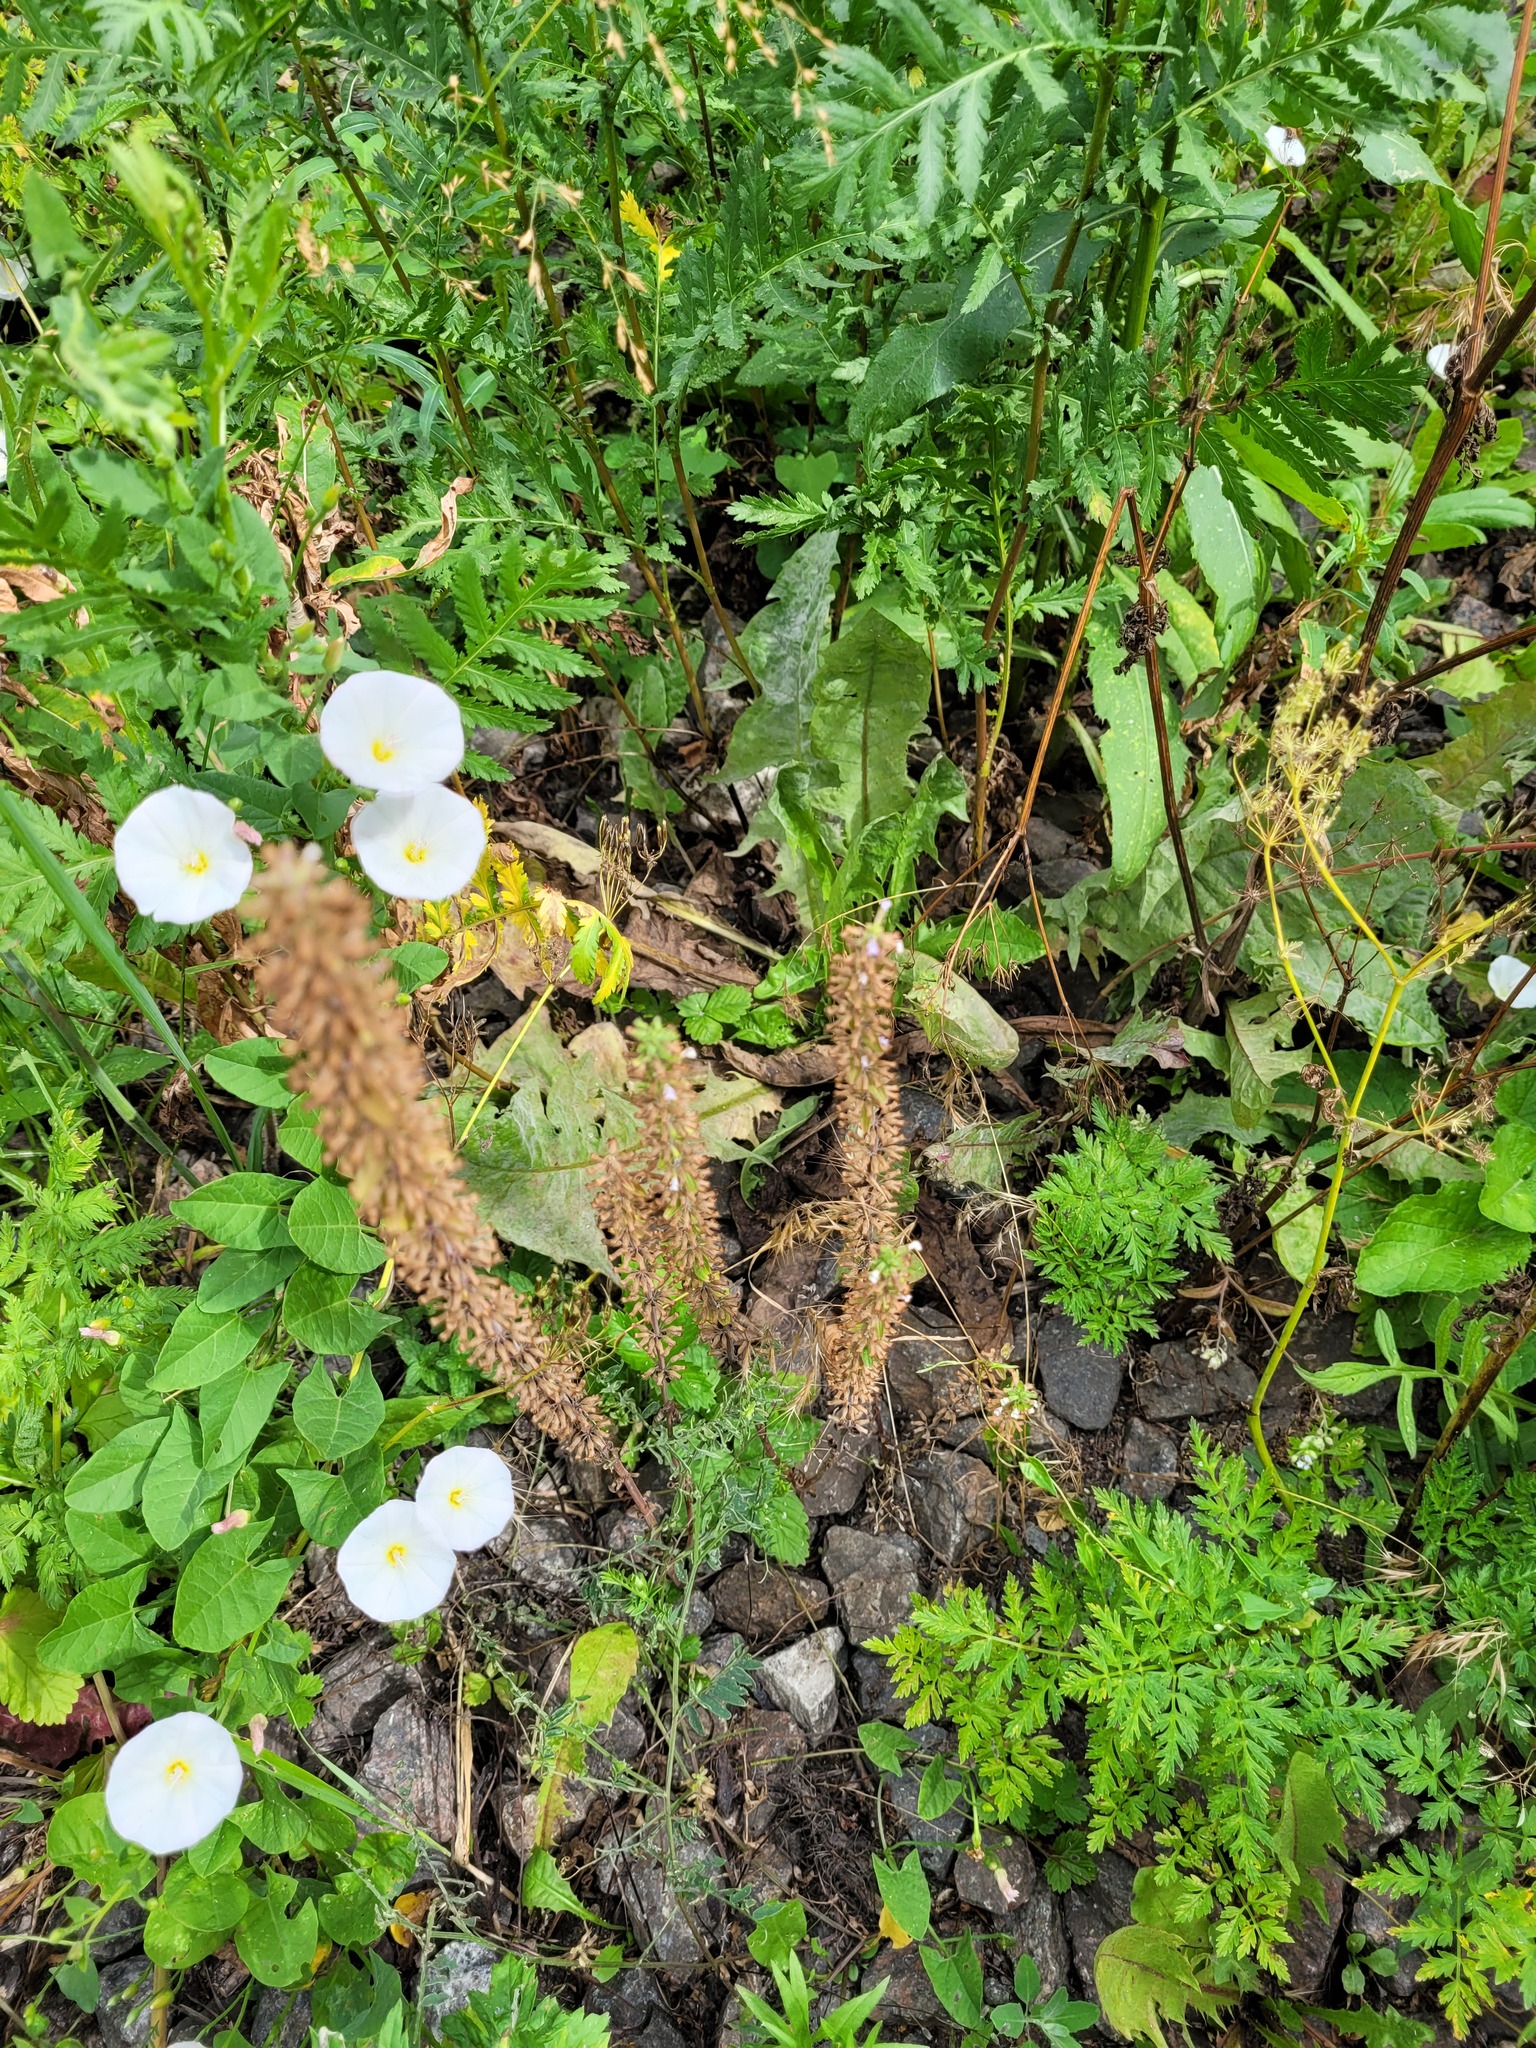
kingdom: Plantae
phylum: Tracheophyta
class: Magnoliopsida
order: Lamiales
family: Lamiaceae
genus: Dracocephalum
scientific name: Dracocephalum thymiflorum
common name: Thymeleaf dragonhead
